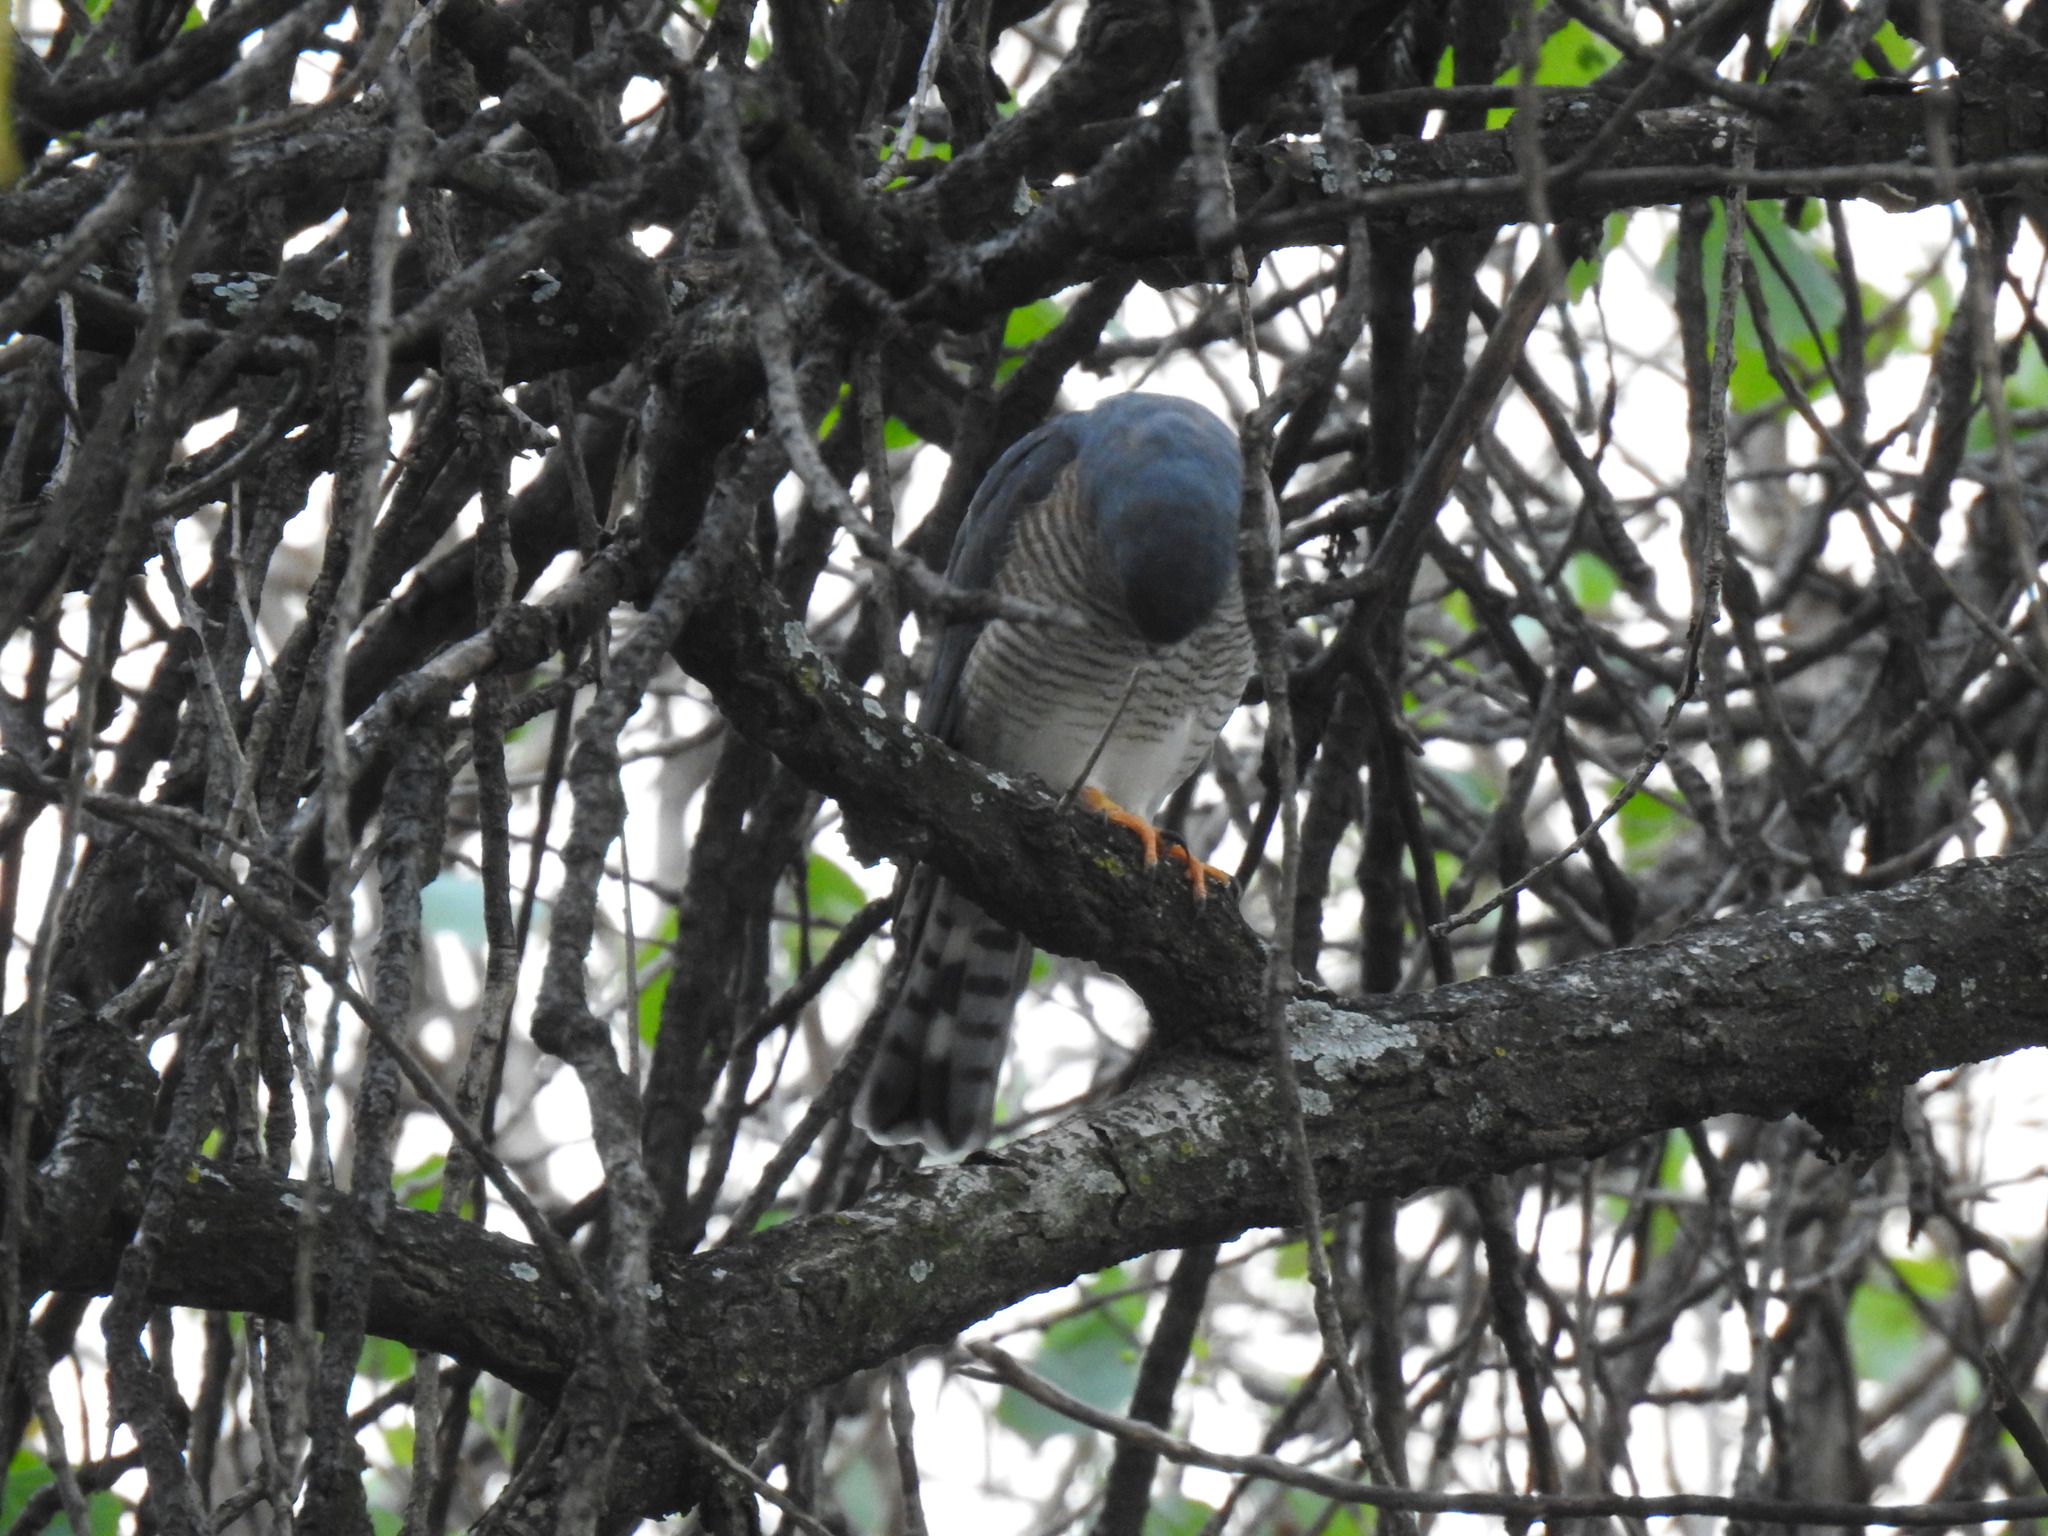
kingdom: Animalia
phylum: Chordata
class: Aves
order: Accipitriformes
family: Accipitridae
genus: Accipiter
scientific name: Accipiter minullus
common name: Little sparrowhawk
